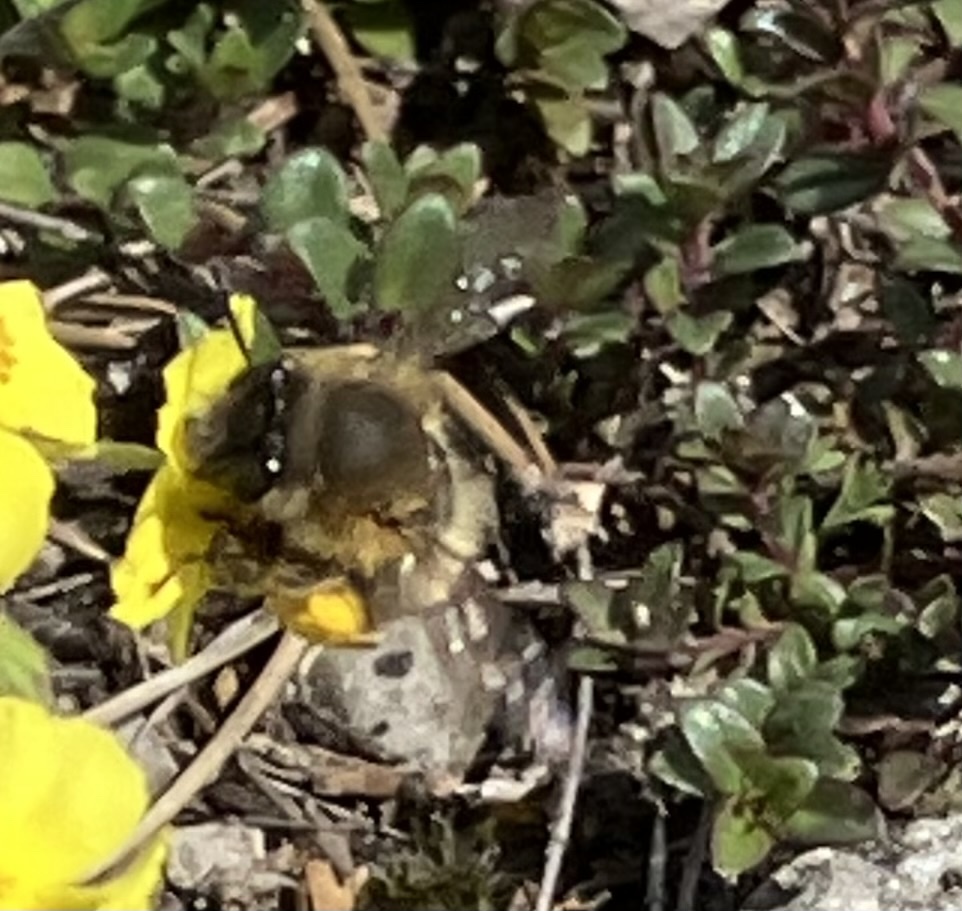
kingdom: Animalia
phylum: Arthropoda
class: Insecta
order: Hymenoptera
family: Apidae
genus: Anthophora
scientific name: Anthophora plumipes
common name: Hairy-footed flower bee
